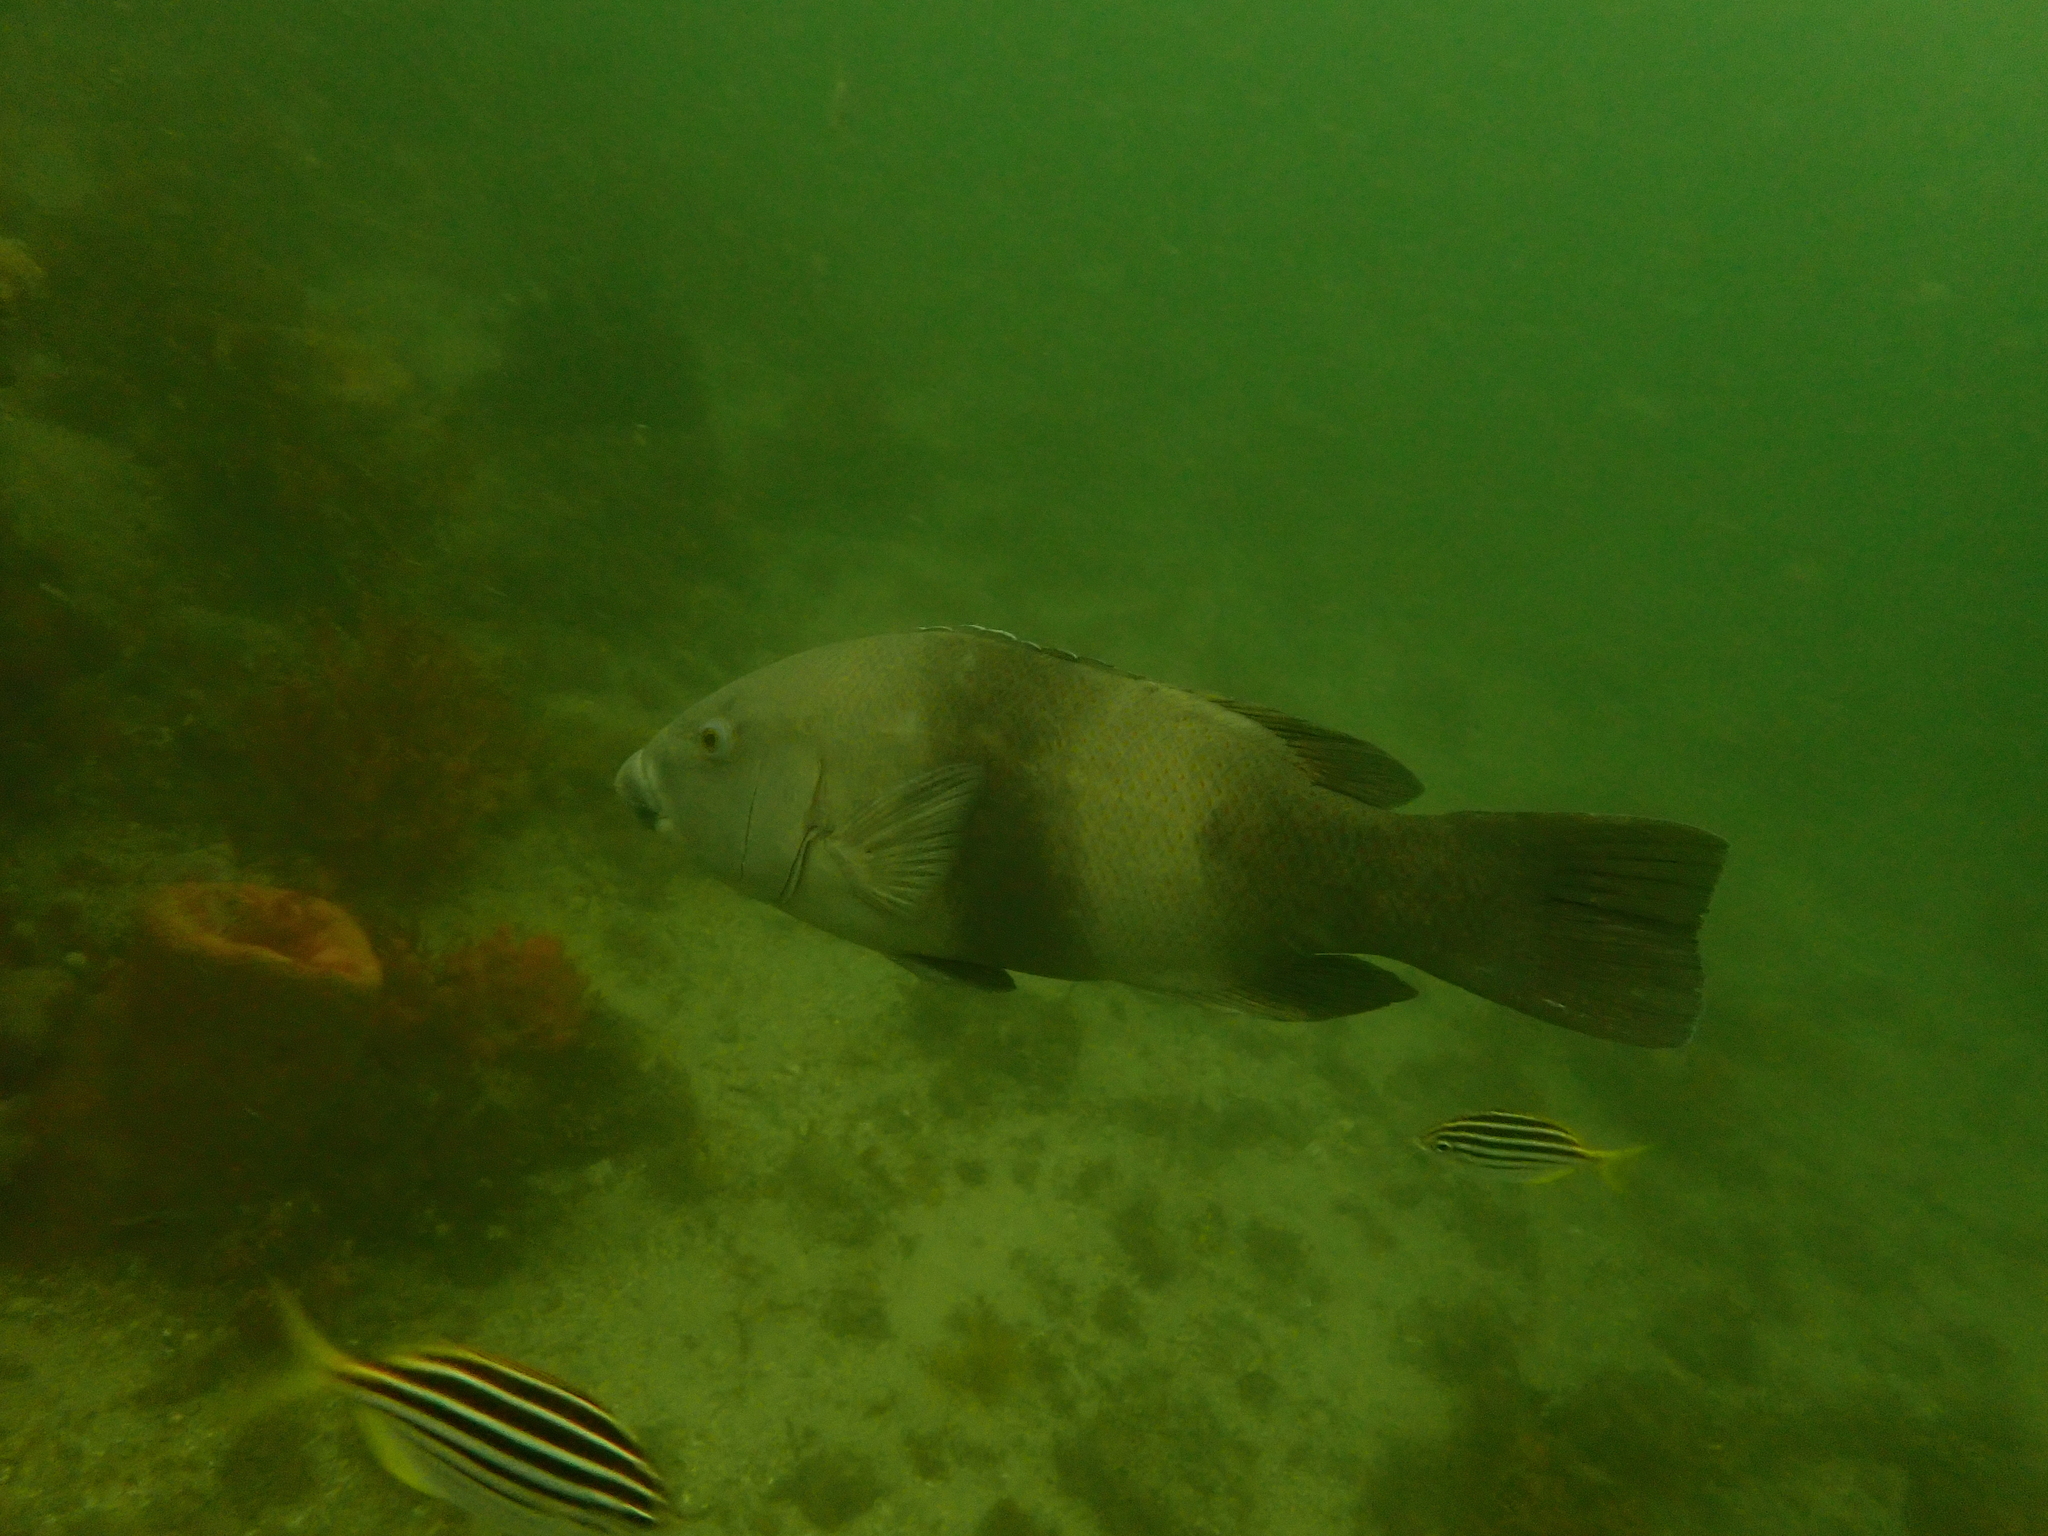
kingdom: Animalia
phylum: Chordata
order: Perciformes
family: Labridae
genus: Achoerodus
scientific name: Achoerodus viridis
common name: Brown groper
